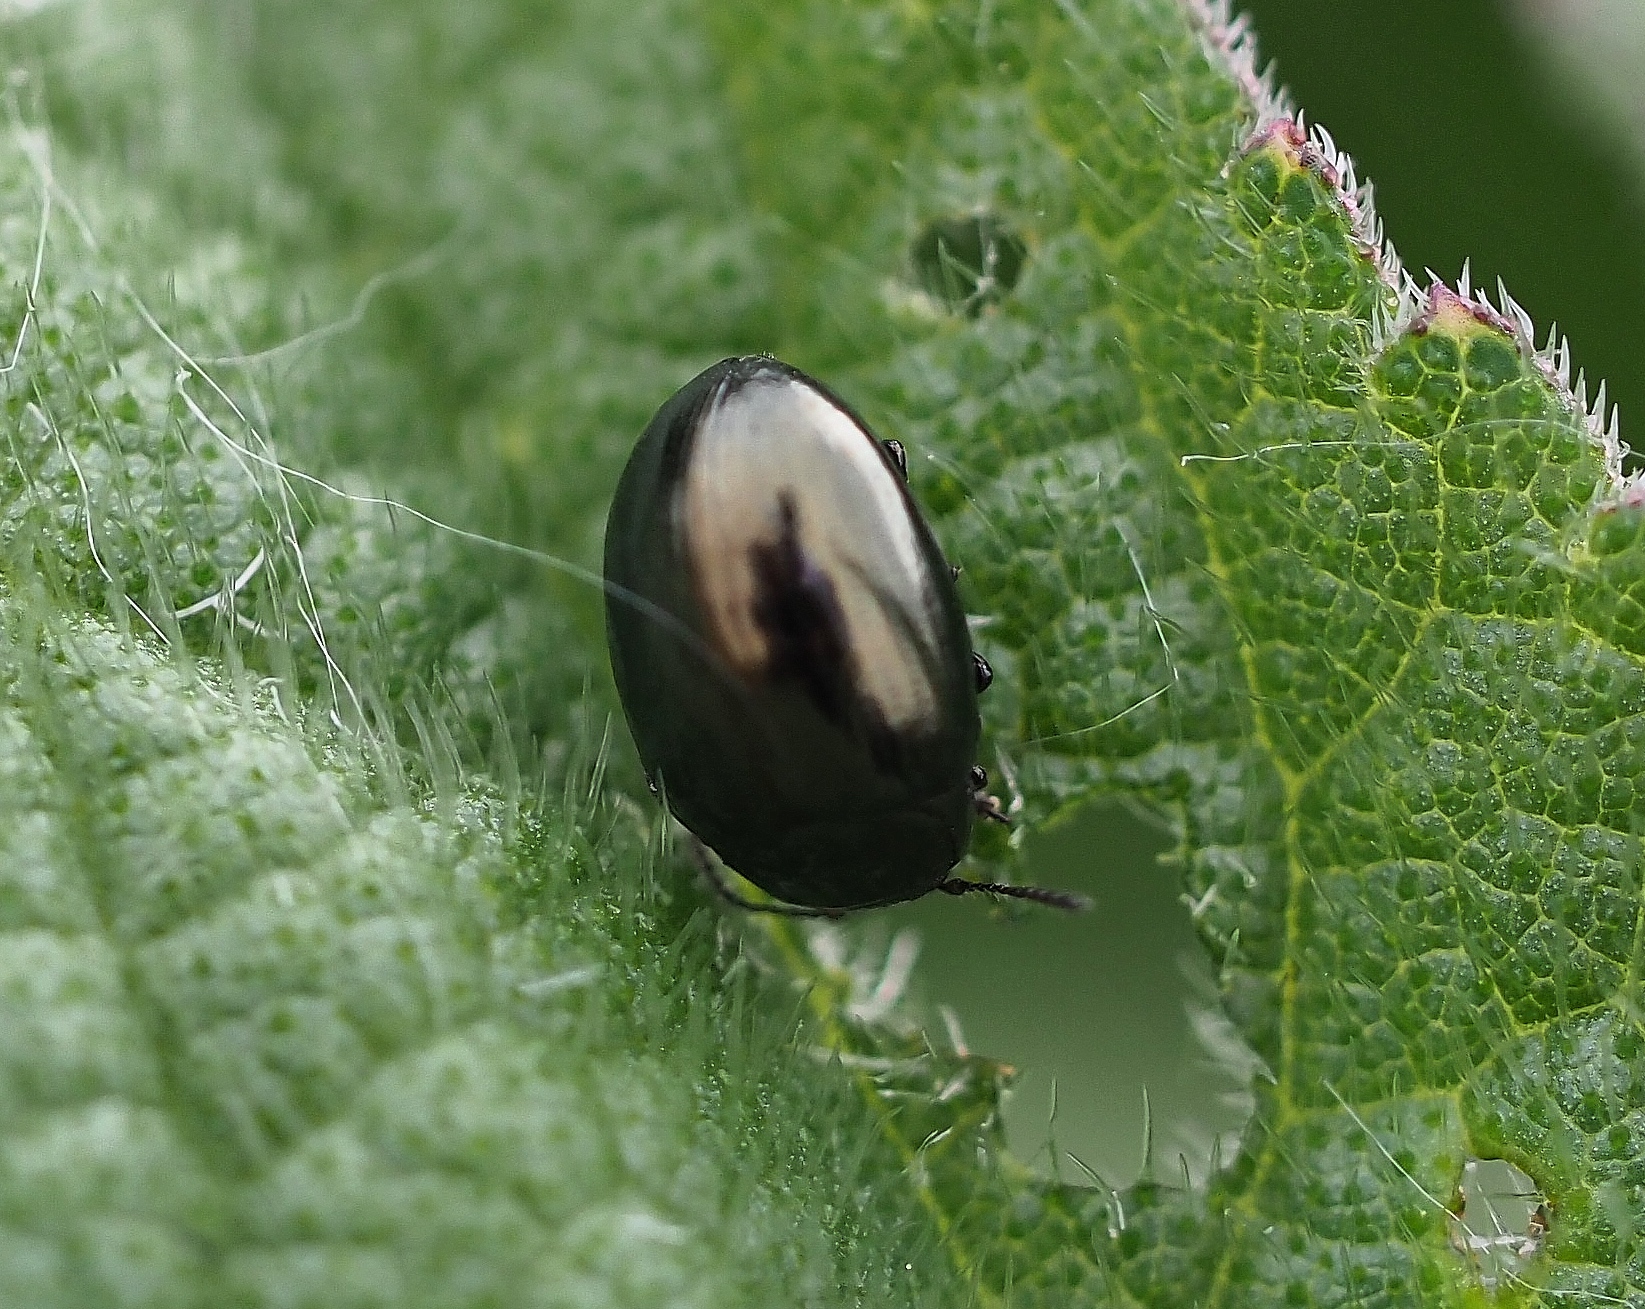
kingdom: Animalia
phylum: Arthropoda
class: Insecta
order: Coleoptera
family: Chrysomelidae
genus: Phaedon
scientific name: Phaedon tumidulus
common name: Celery leaf beetle
